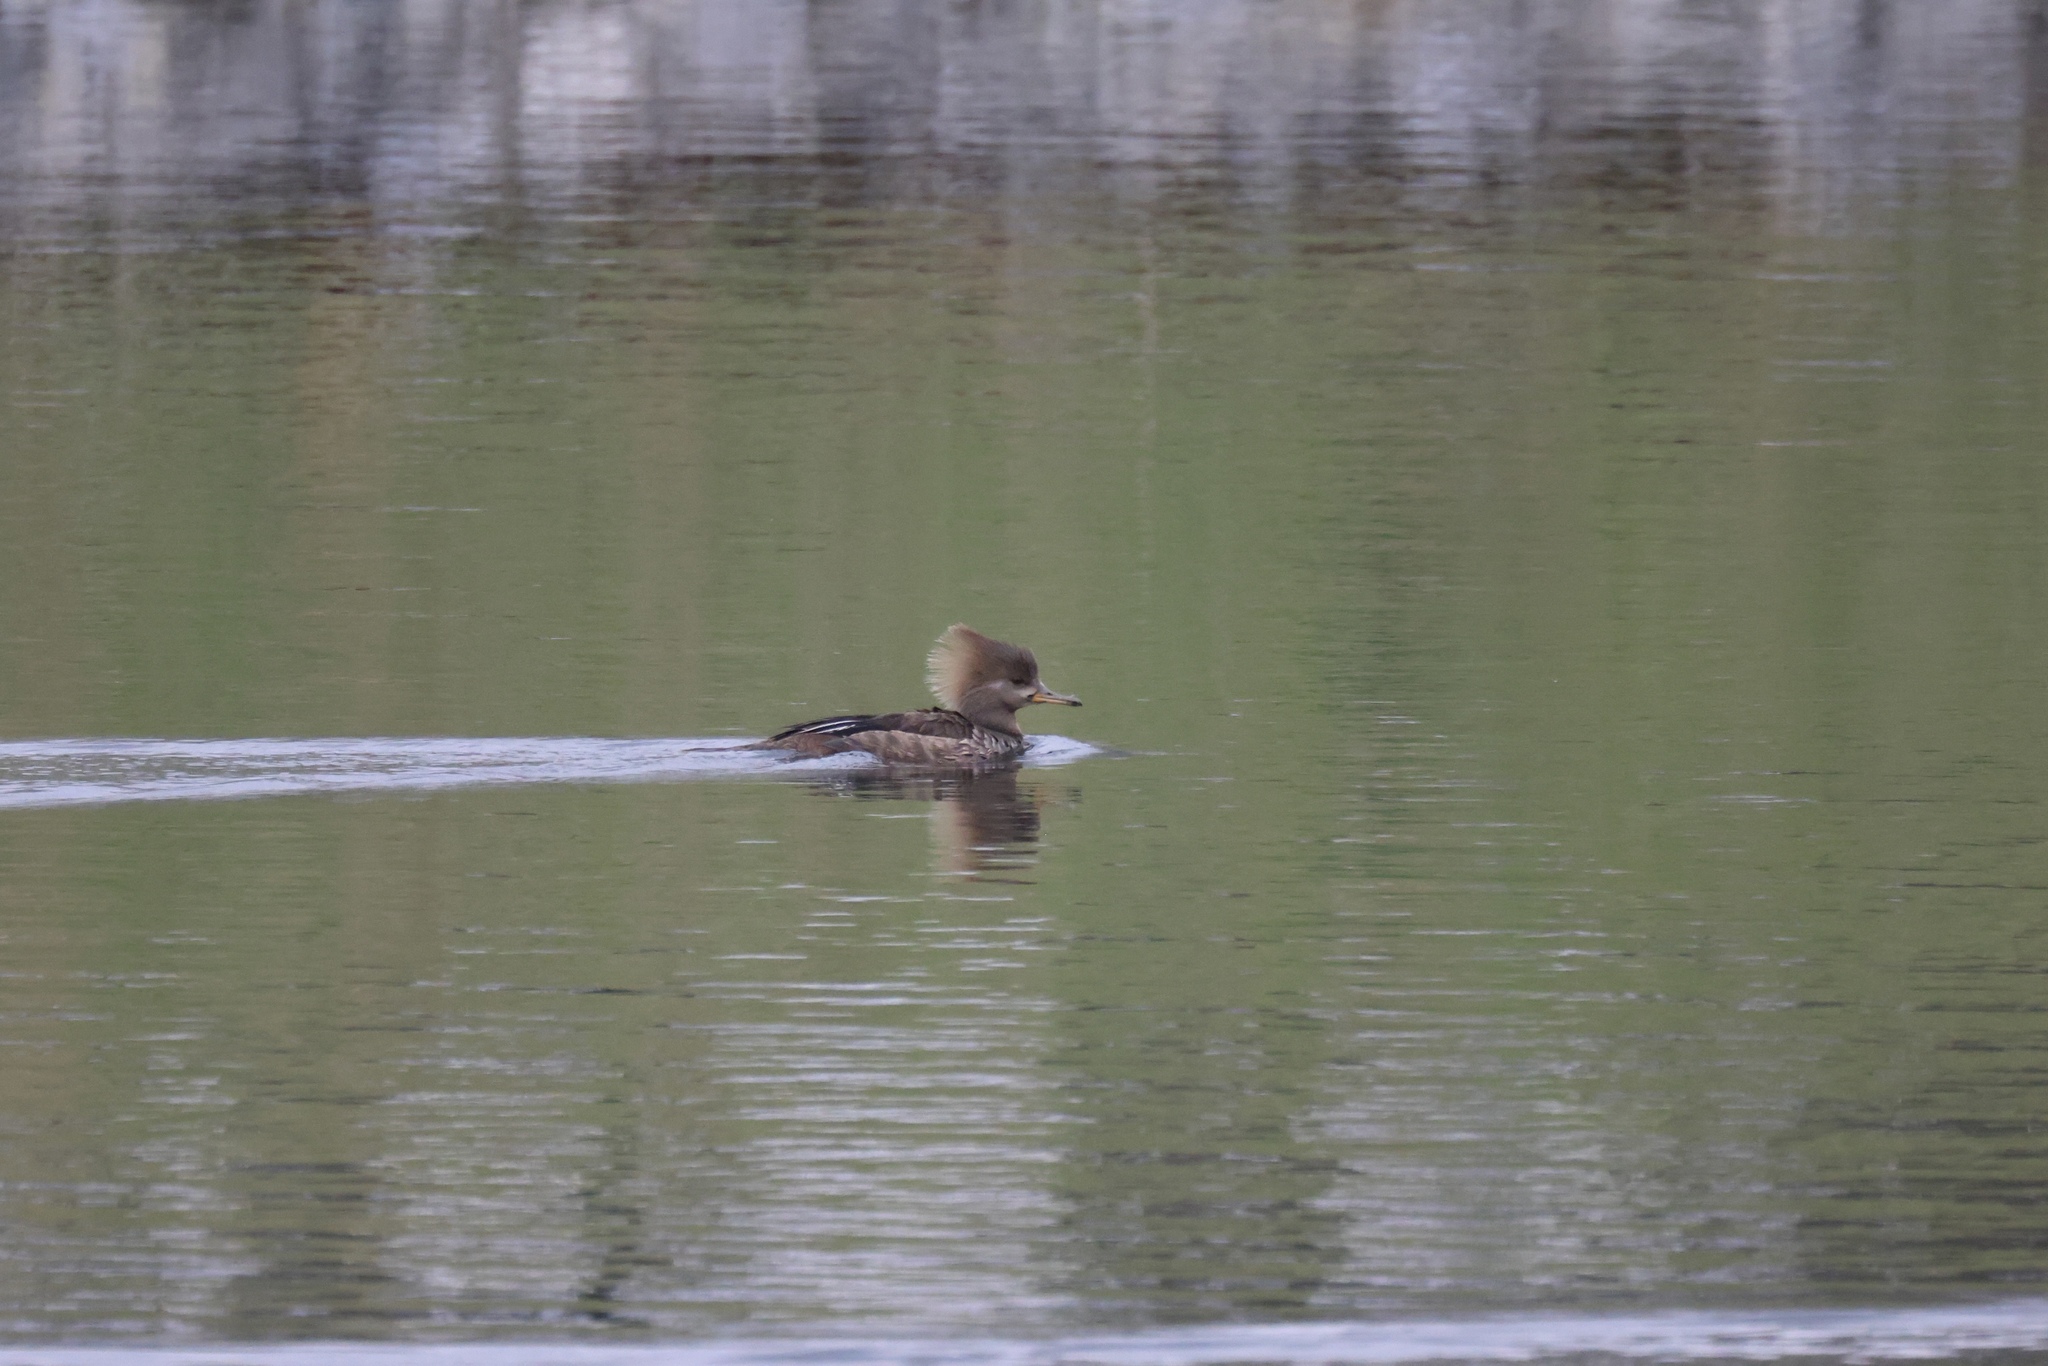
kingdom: Animalia
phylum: Chordata
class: Aves
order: Anseriformes
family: Anatidae
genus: Lophodytes
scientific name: Lophodytes cucullatus
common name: Hooded merganser
